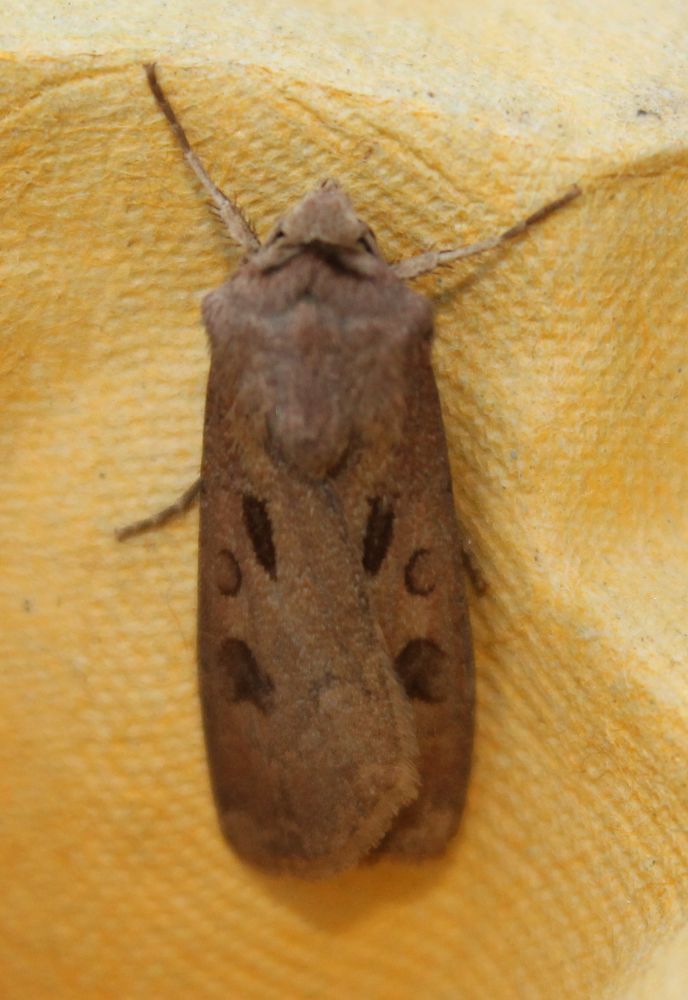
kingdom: Animalia
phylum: Arthropoda
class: Insecta
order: Lepidoptera
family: Noctuidae
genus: Agrotis
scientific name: Agrotis exclamationis
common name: Heart and dart
